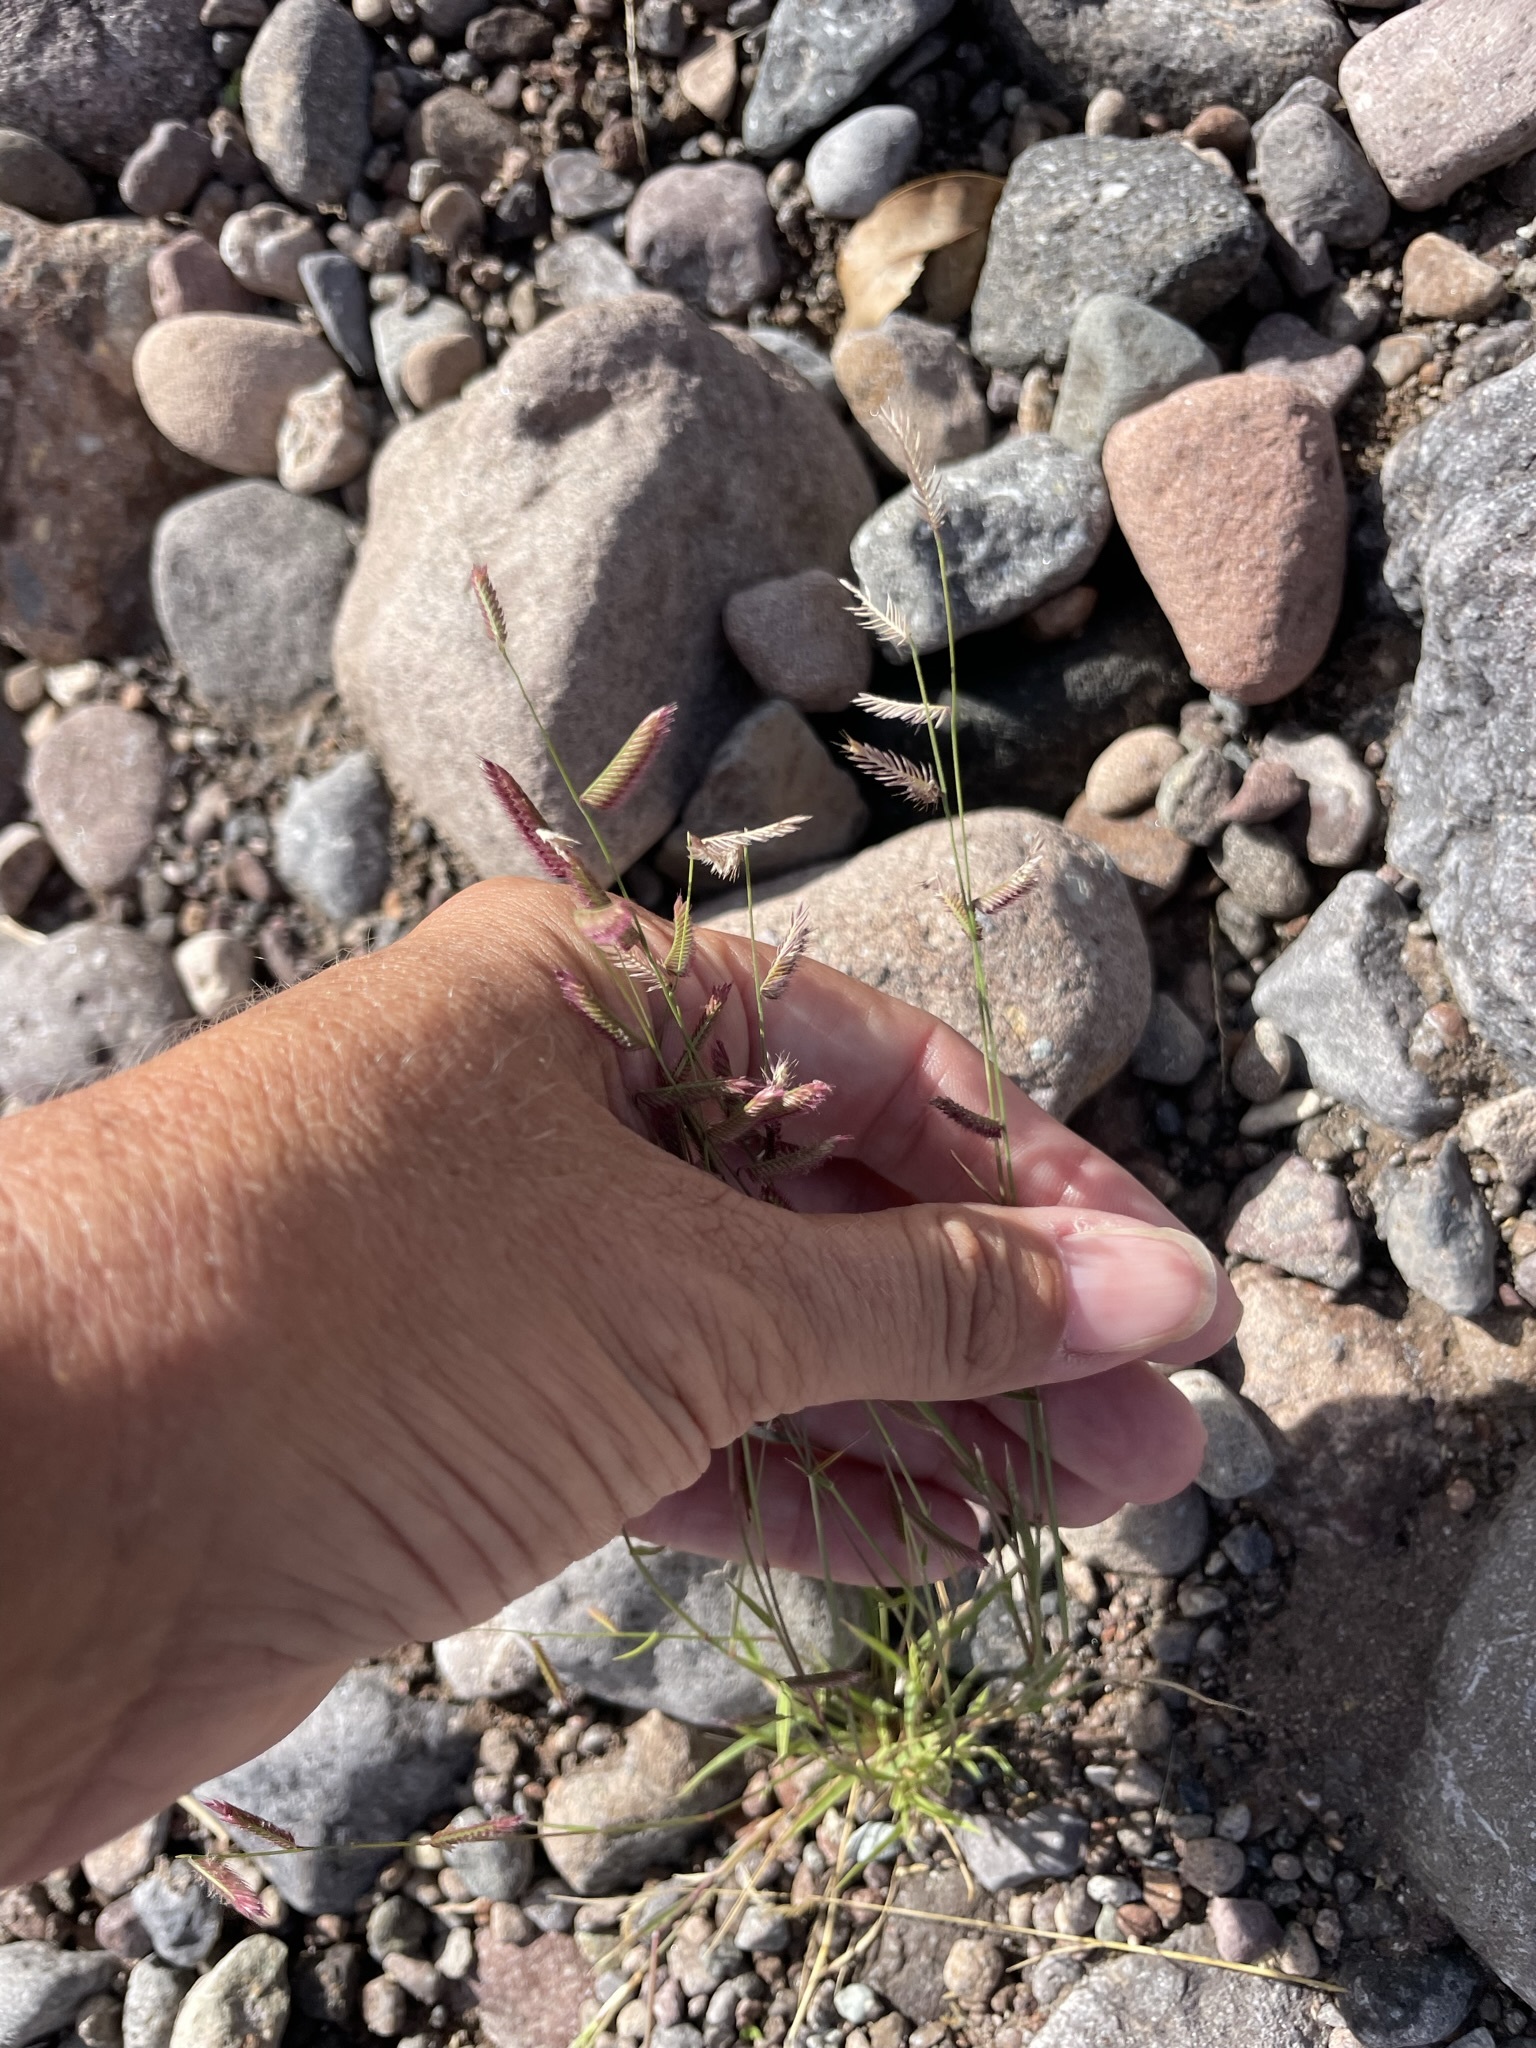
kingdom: Plantae
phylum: Tracheophyta
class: Liliopsida
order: Poales
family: Poaceae
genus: Bouteloua
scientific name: Bouteloua barbata
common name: Six-weeks grama
